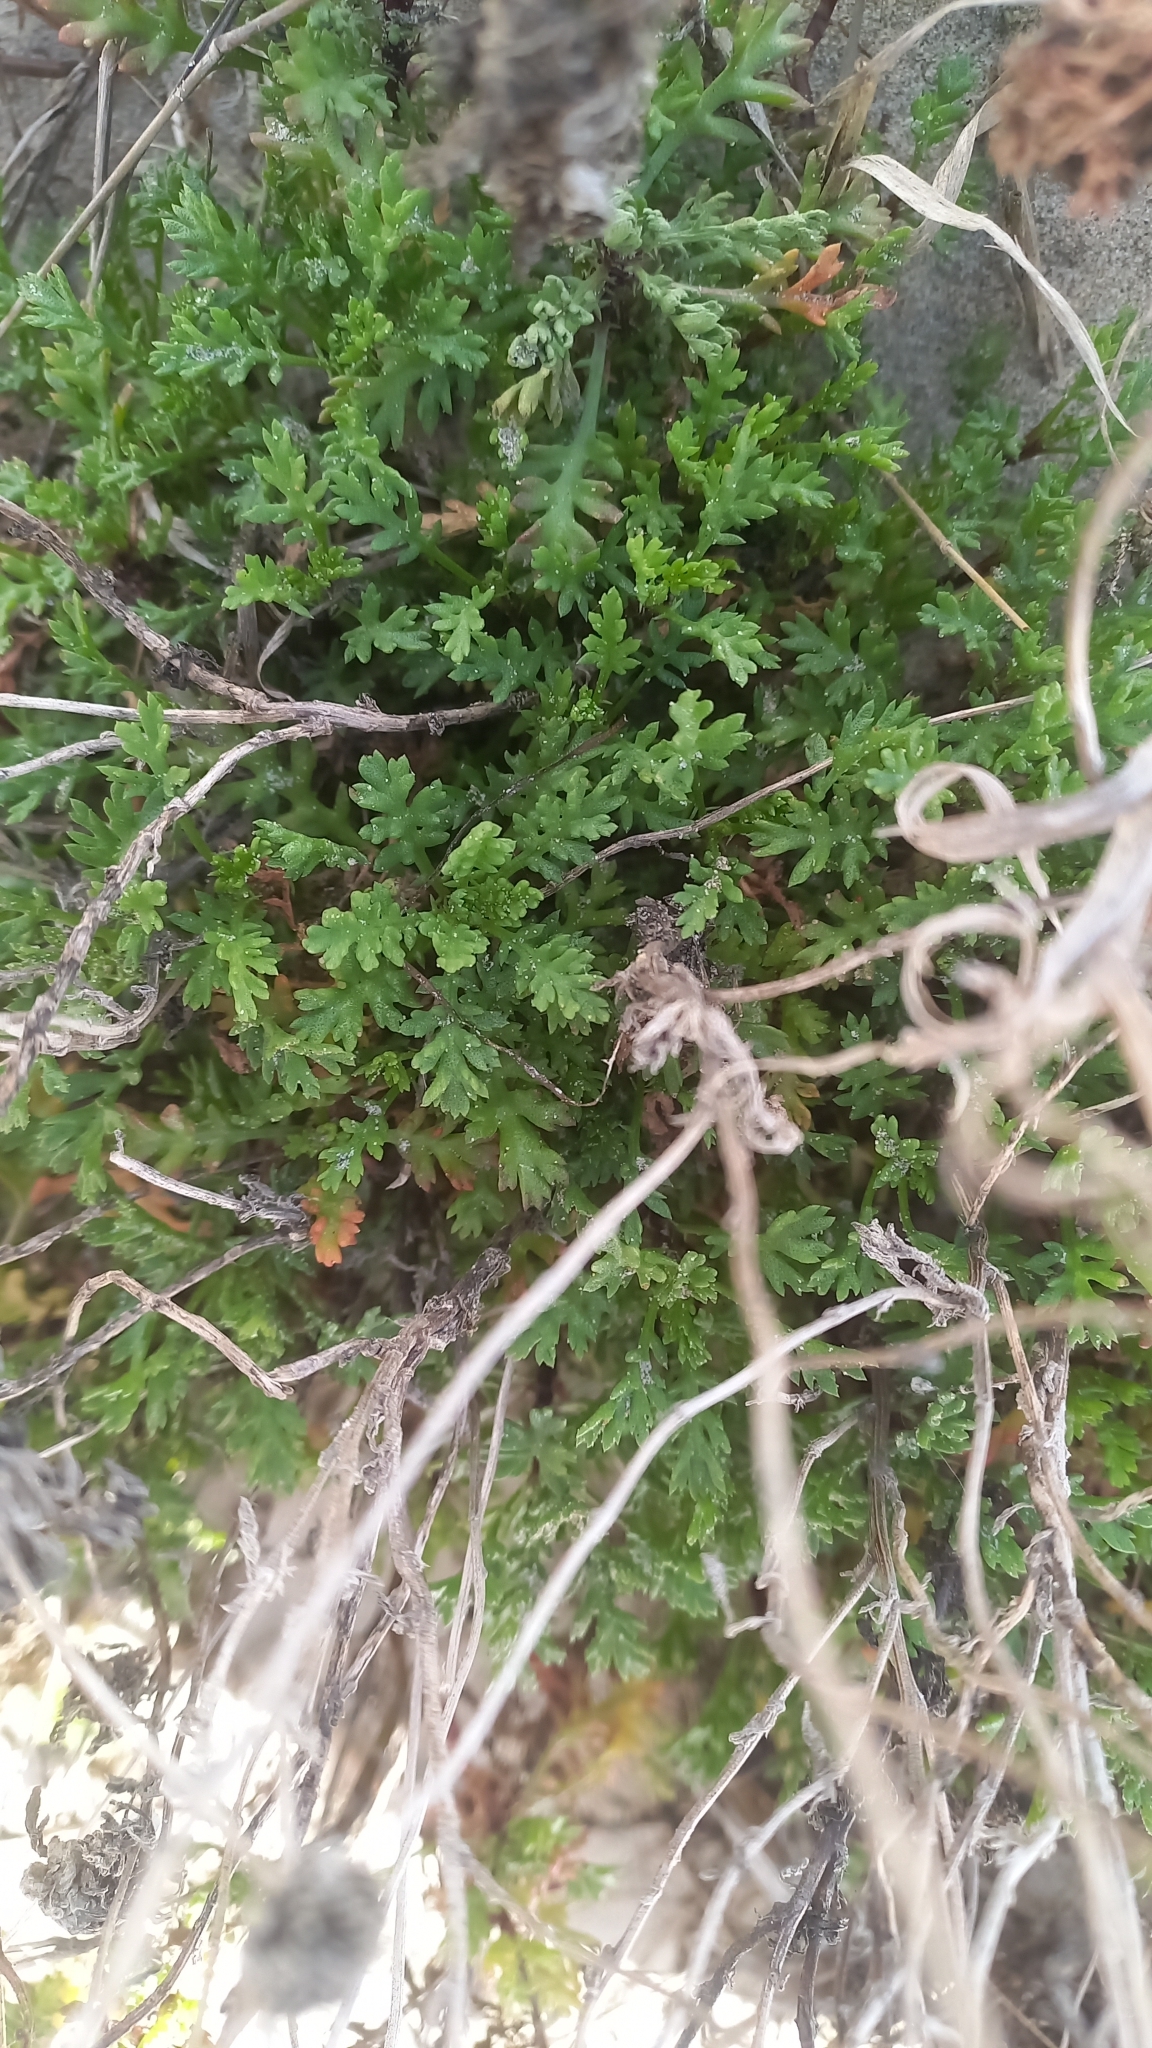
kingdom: Plantae
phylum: Tracheophyta
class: Magnoliopsida
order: Asterales
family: Asteraceae
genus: Anthemis
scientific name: Anthemis maritima
